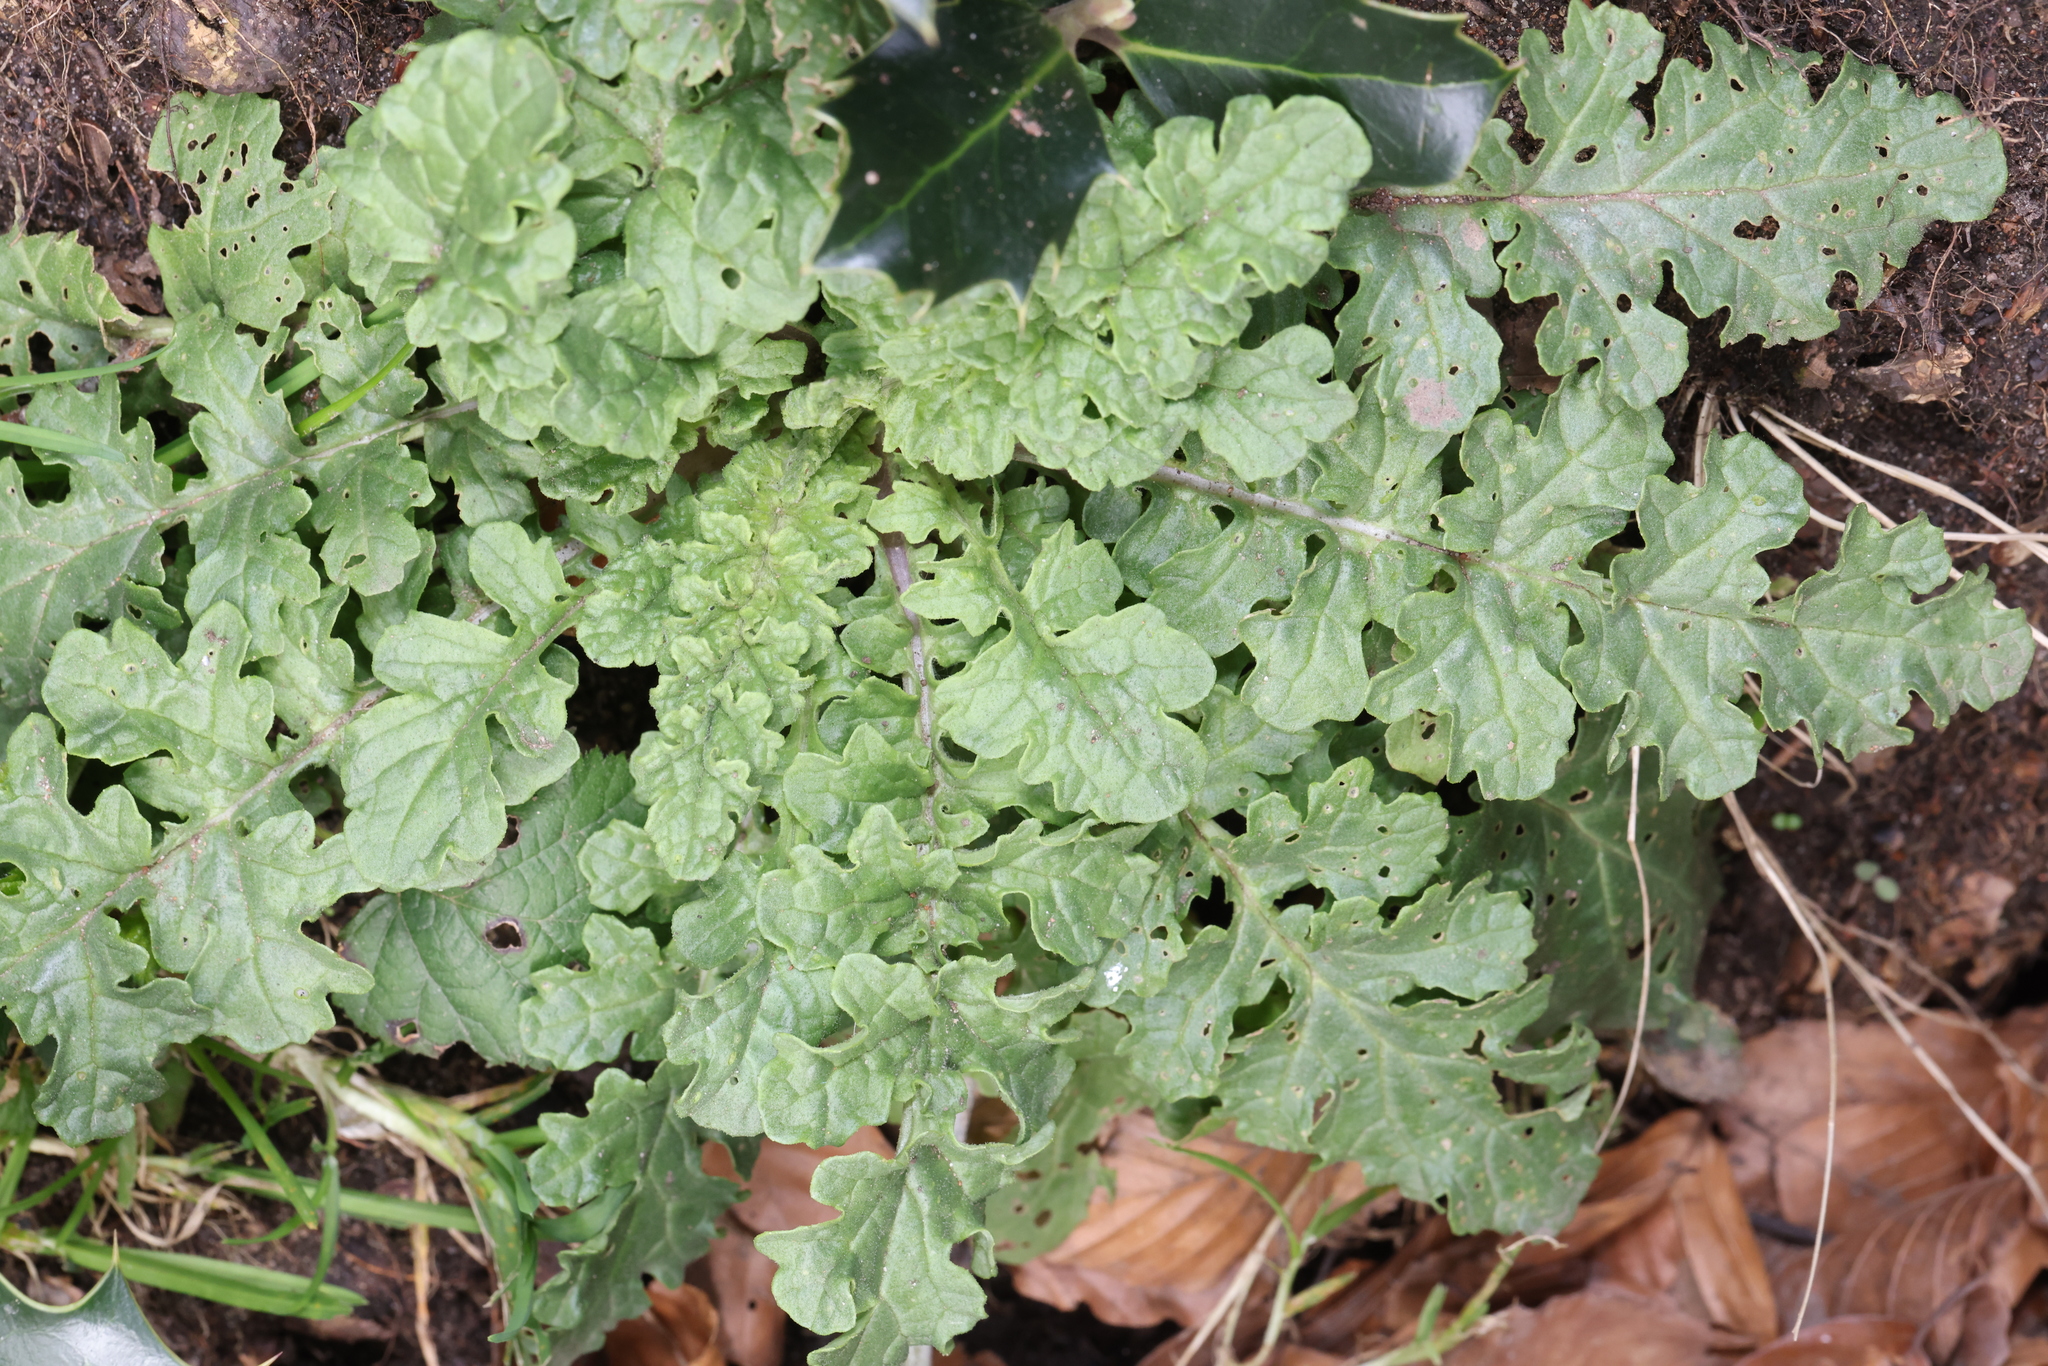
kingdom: Plantae
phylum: Tracheophyta
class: Magnoliopsida
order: Asterales
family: Asteraceae
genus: Jacobaea
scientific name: Jacobaea vulgaris
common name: Stinking willie
